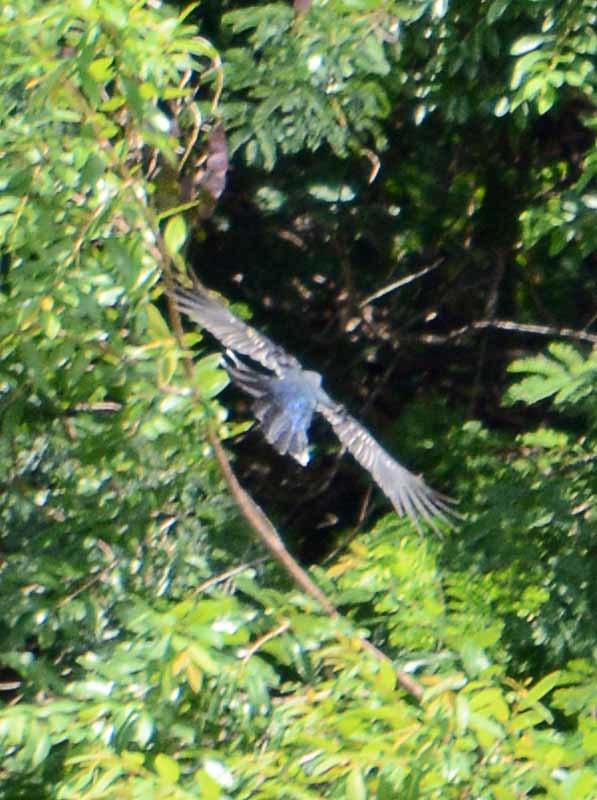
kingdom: Animalia
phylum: Chordata
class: Aves
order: Passeriformes
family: Corvidae
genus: Cyanocorax
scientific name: Cyanocorax yucatanicus
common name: Yucatan jay
